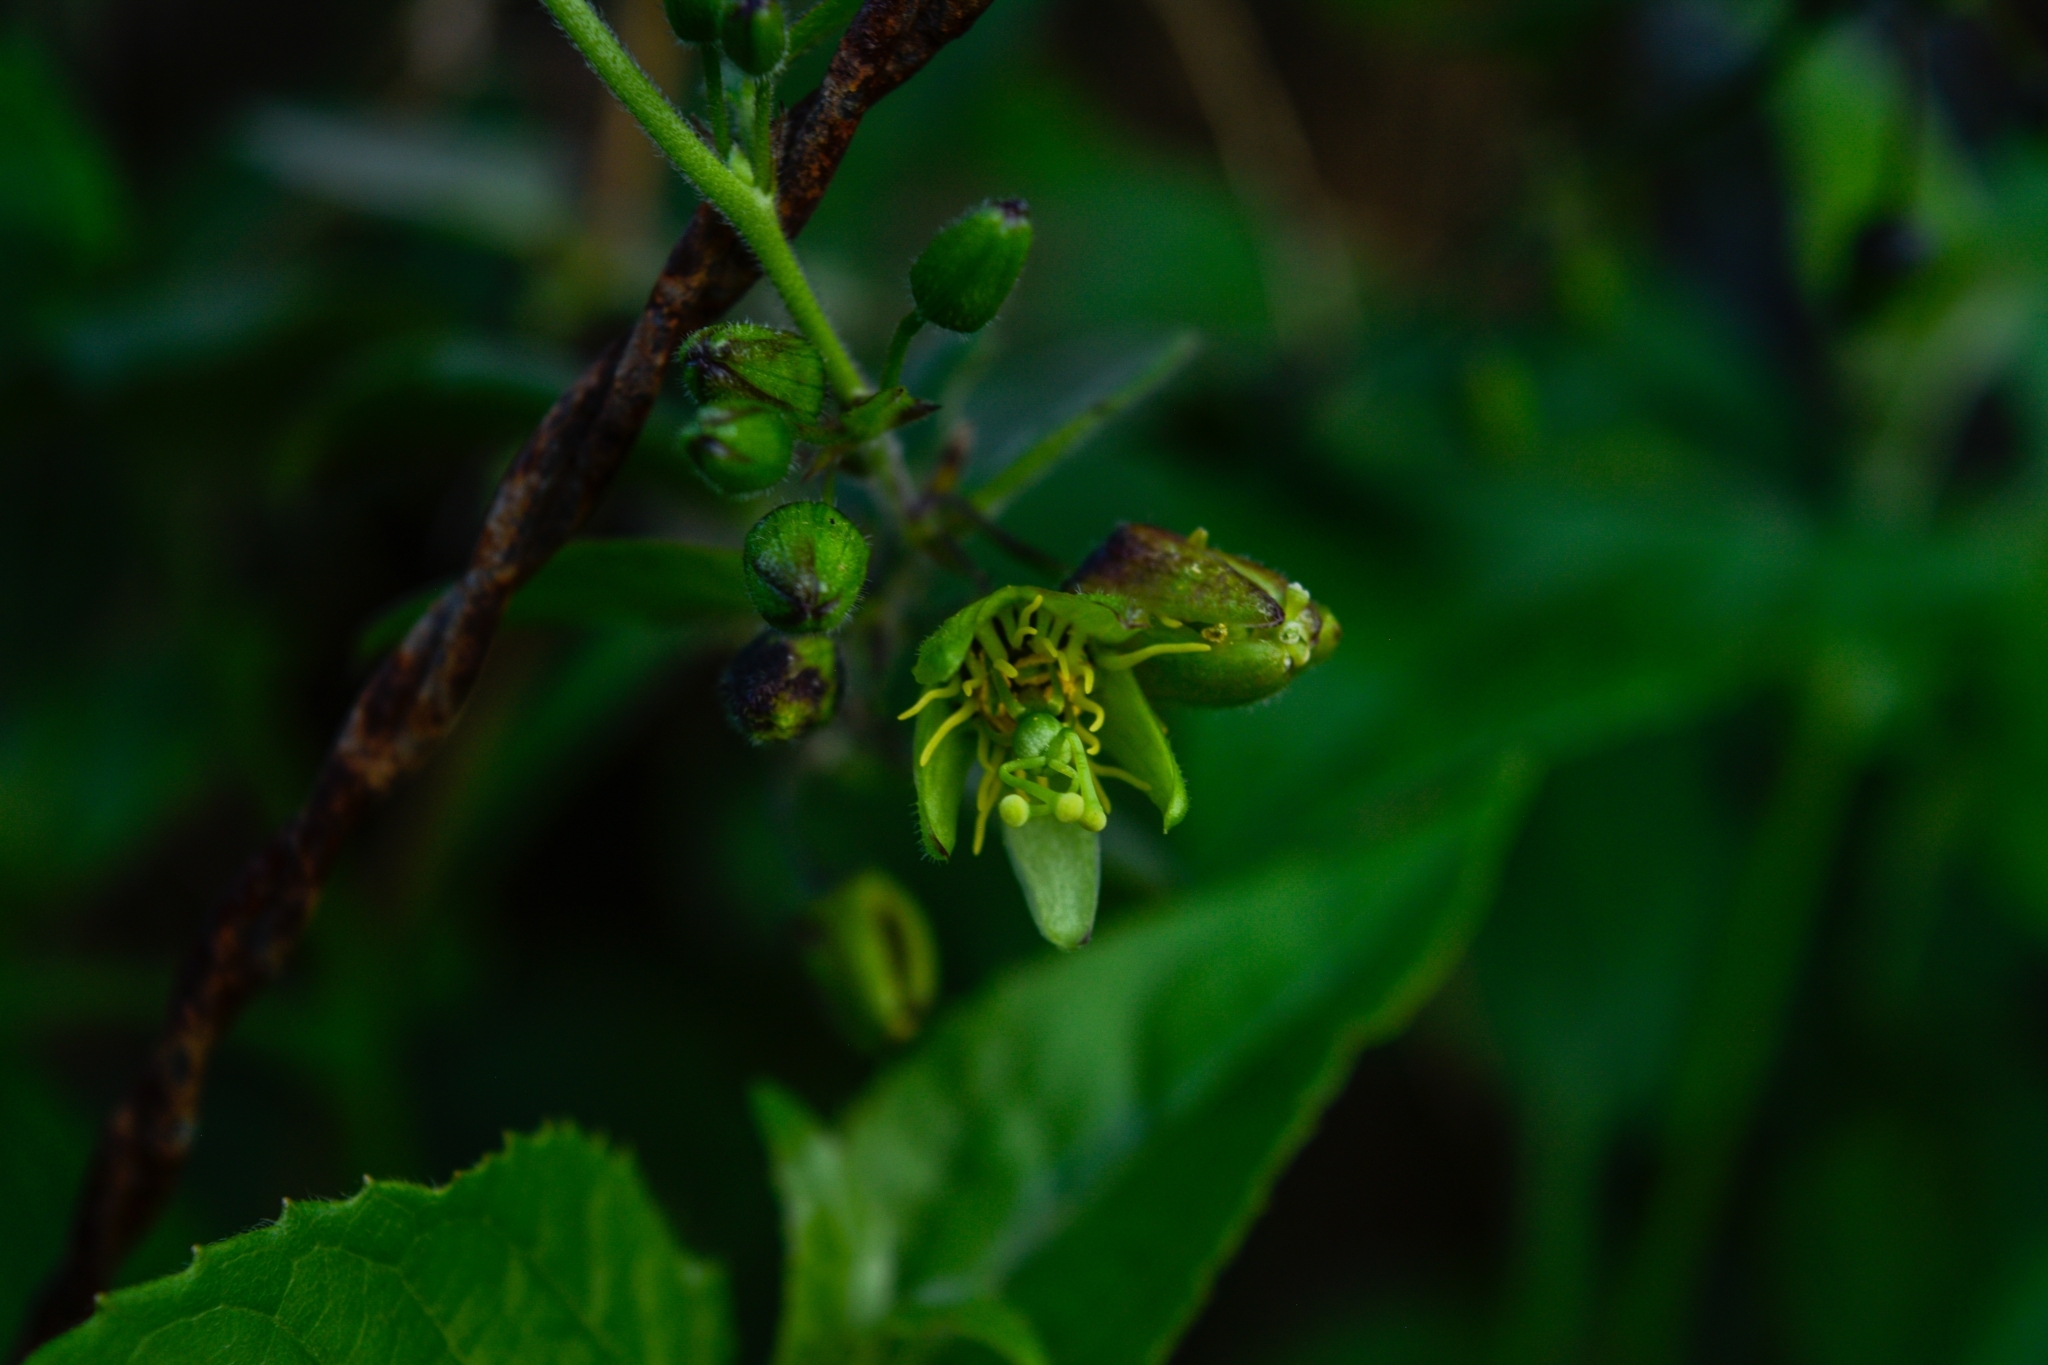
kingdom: Plantae
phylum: Tracheophyta
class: Magnoliopsida
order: Malpighiales
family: Passifloraceae
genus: Passiflora
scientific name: Passiflora suberosa
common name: Wild passionfruit
